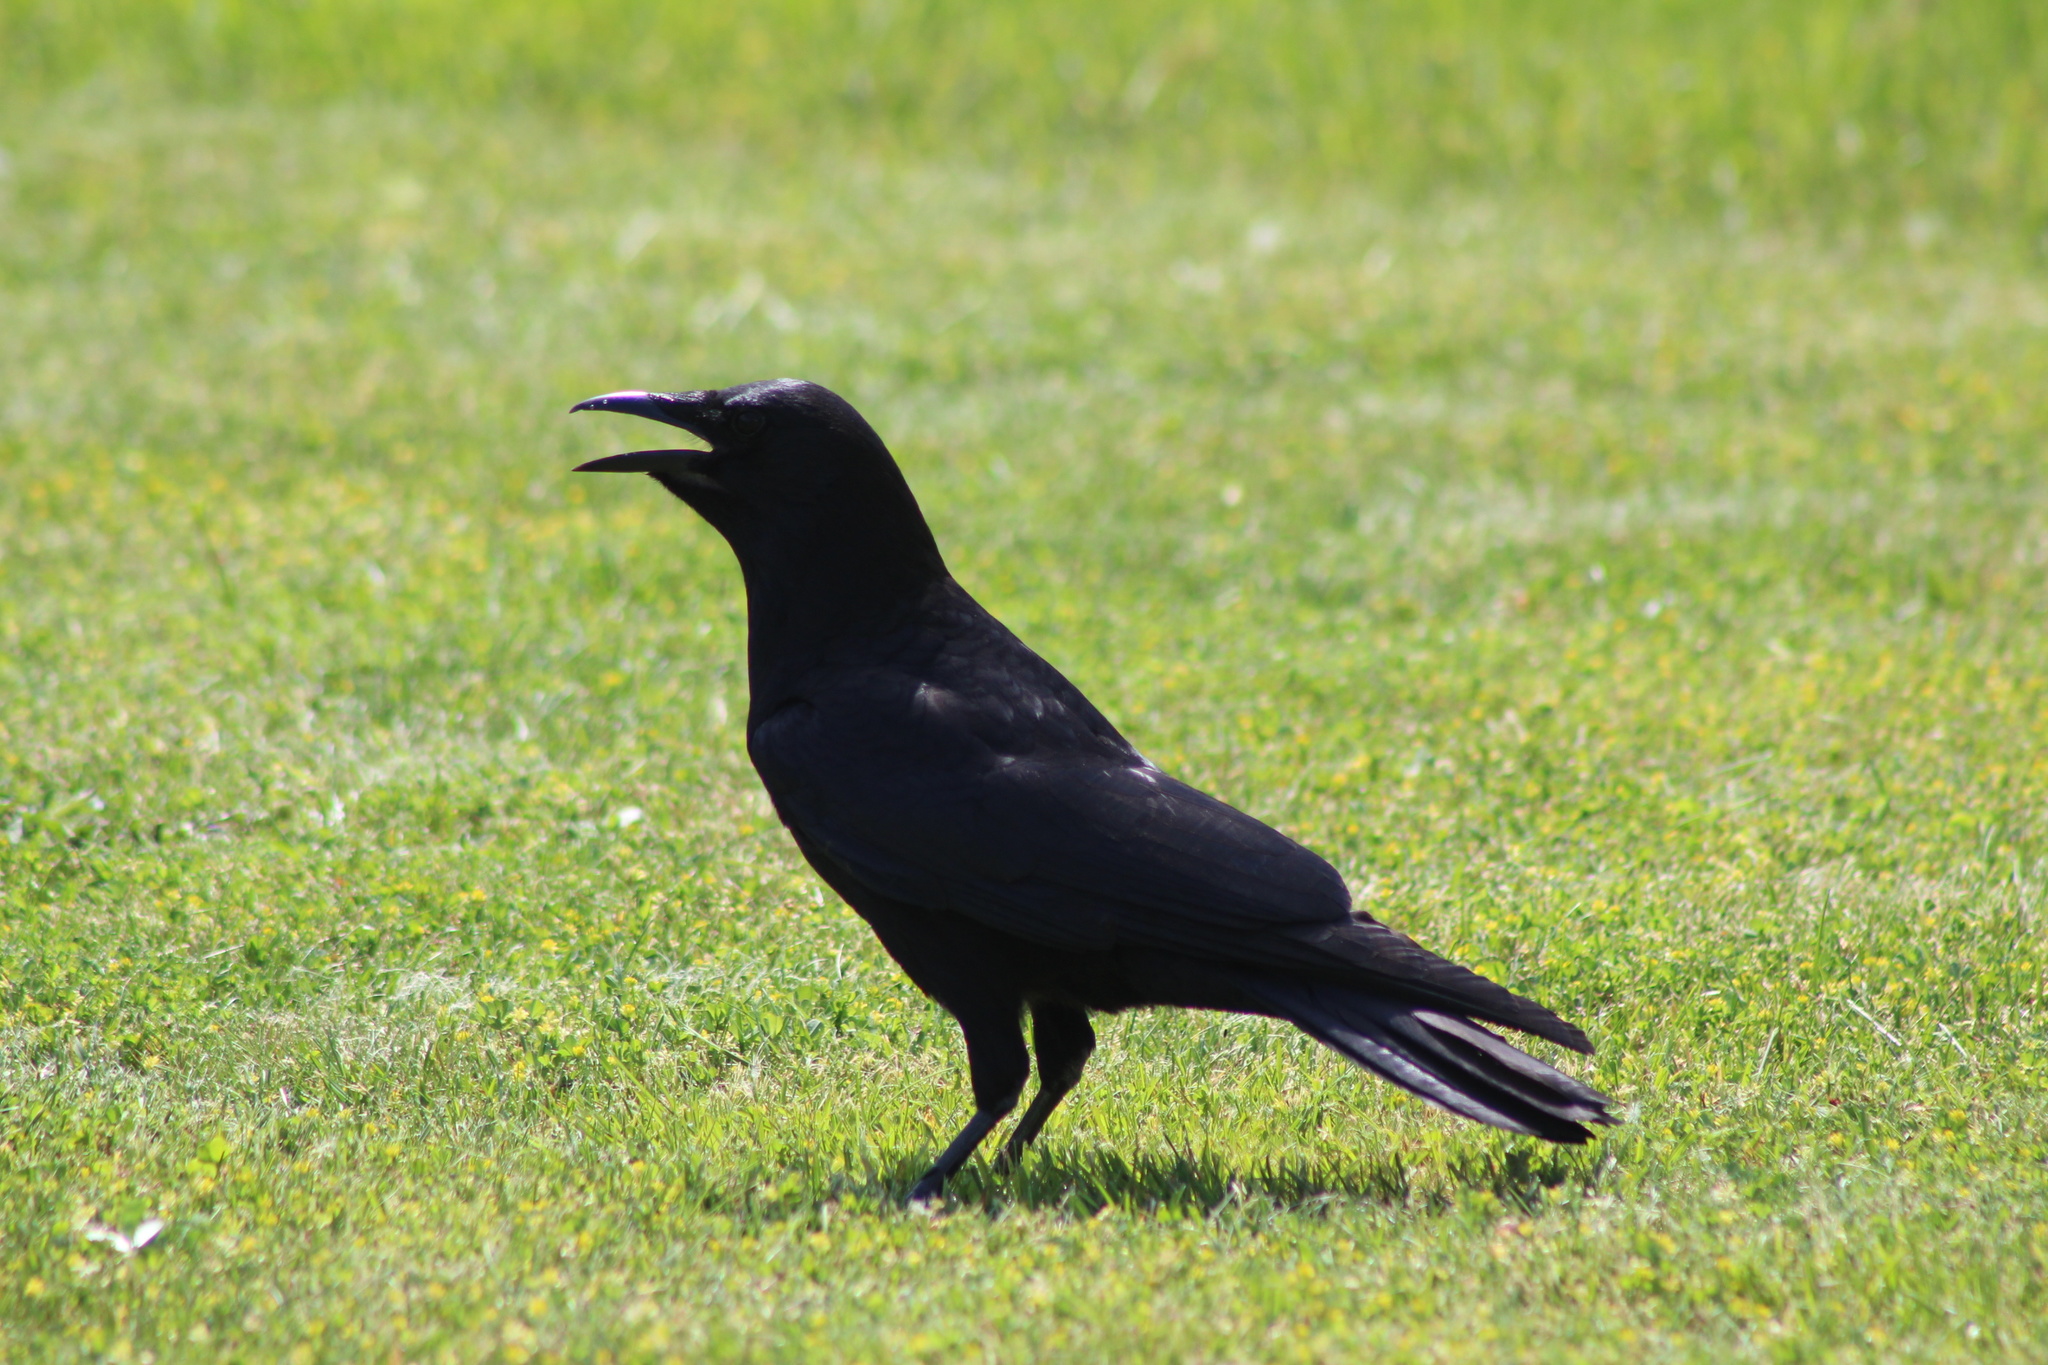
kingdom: Animalia
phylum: Chordata
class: Aves
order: Passeriformes
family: Corvidae
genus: Corvus
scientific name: Corvus brachyrhynchos
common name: American crow
